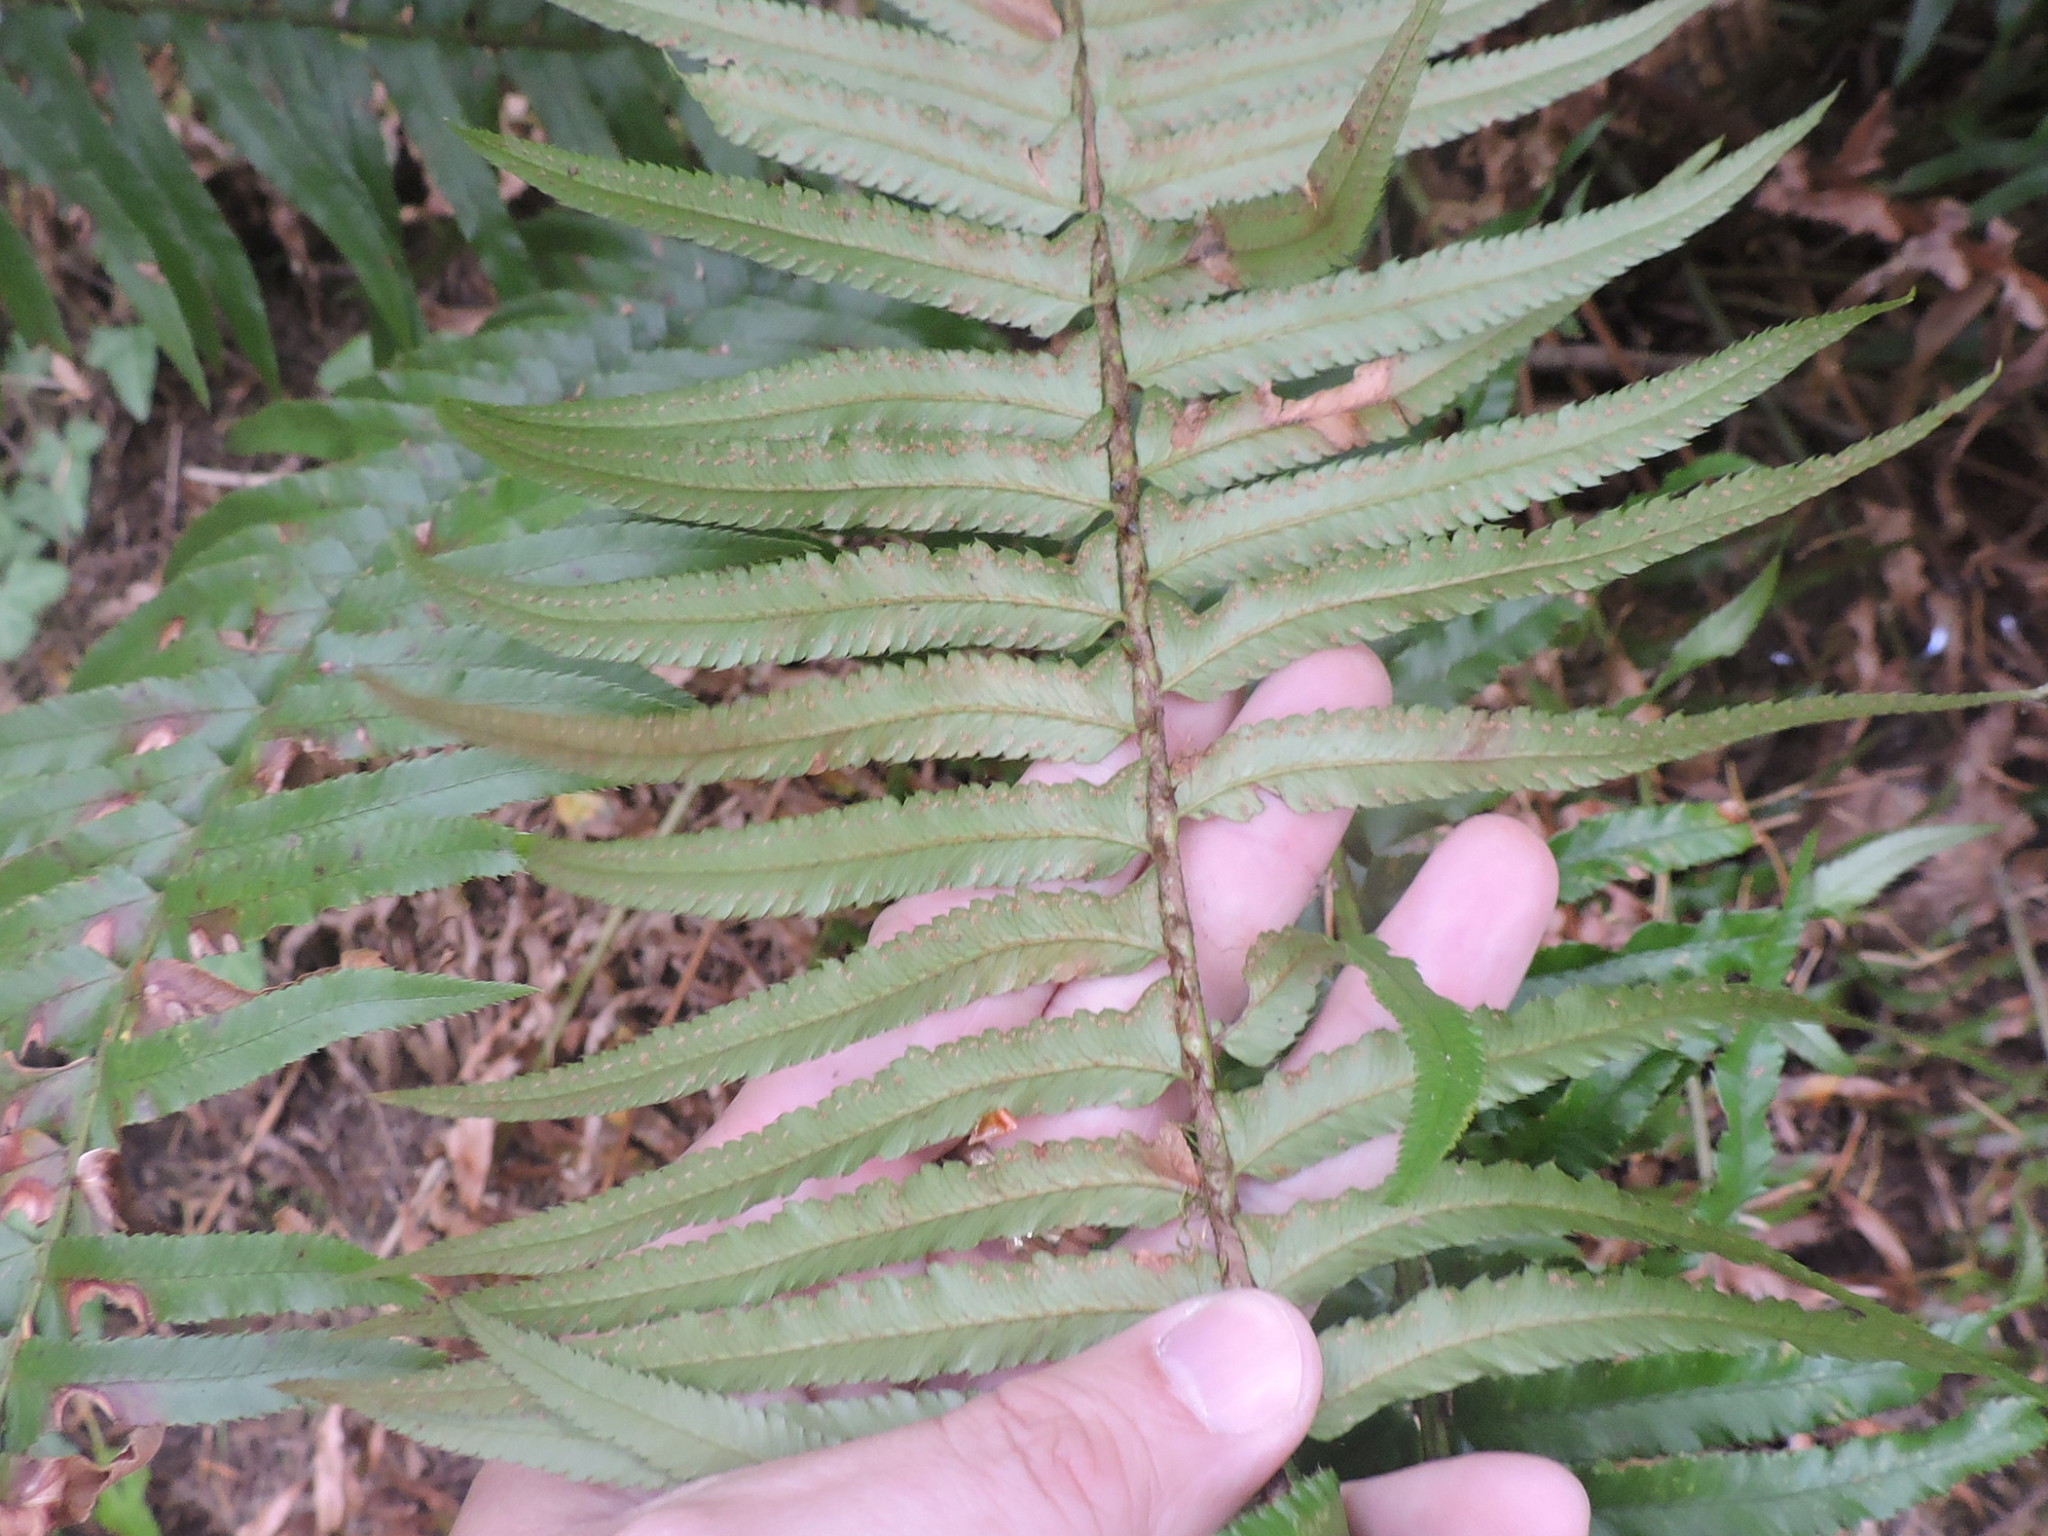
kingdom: Plantae
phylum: Tracheophyta
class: Polypodiopsida
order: Polypodiales
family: Dryopteridaceae
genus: Polystichum
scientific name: Polystichum munitum
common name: Western sword-fern
